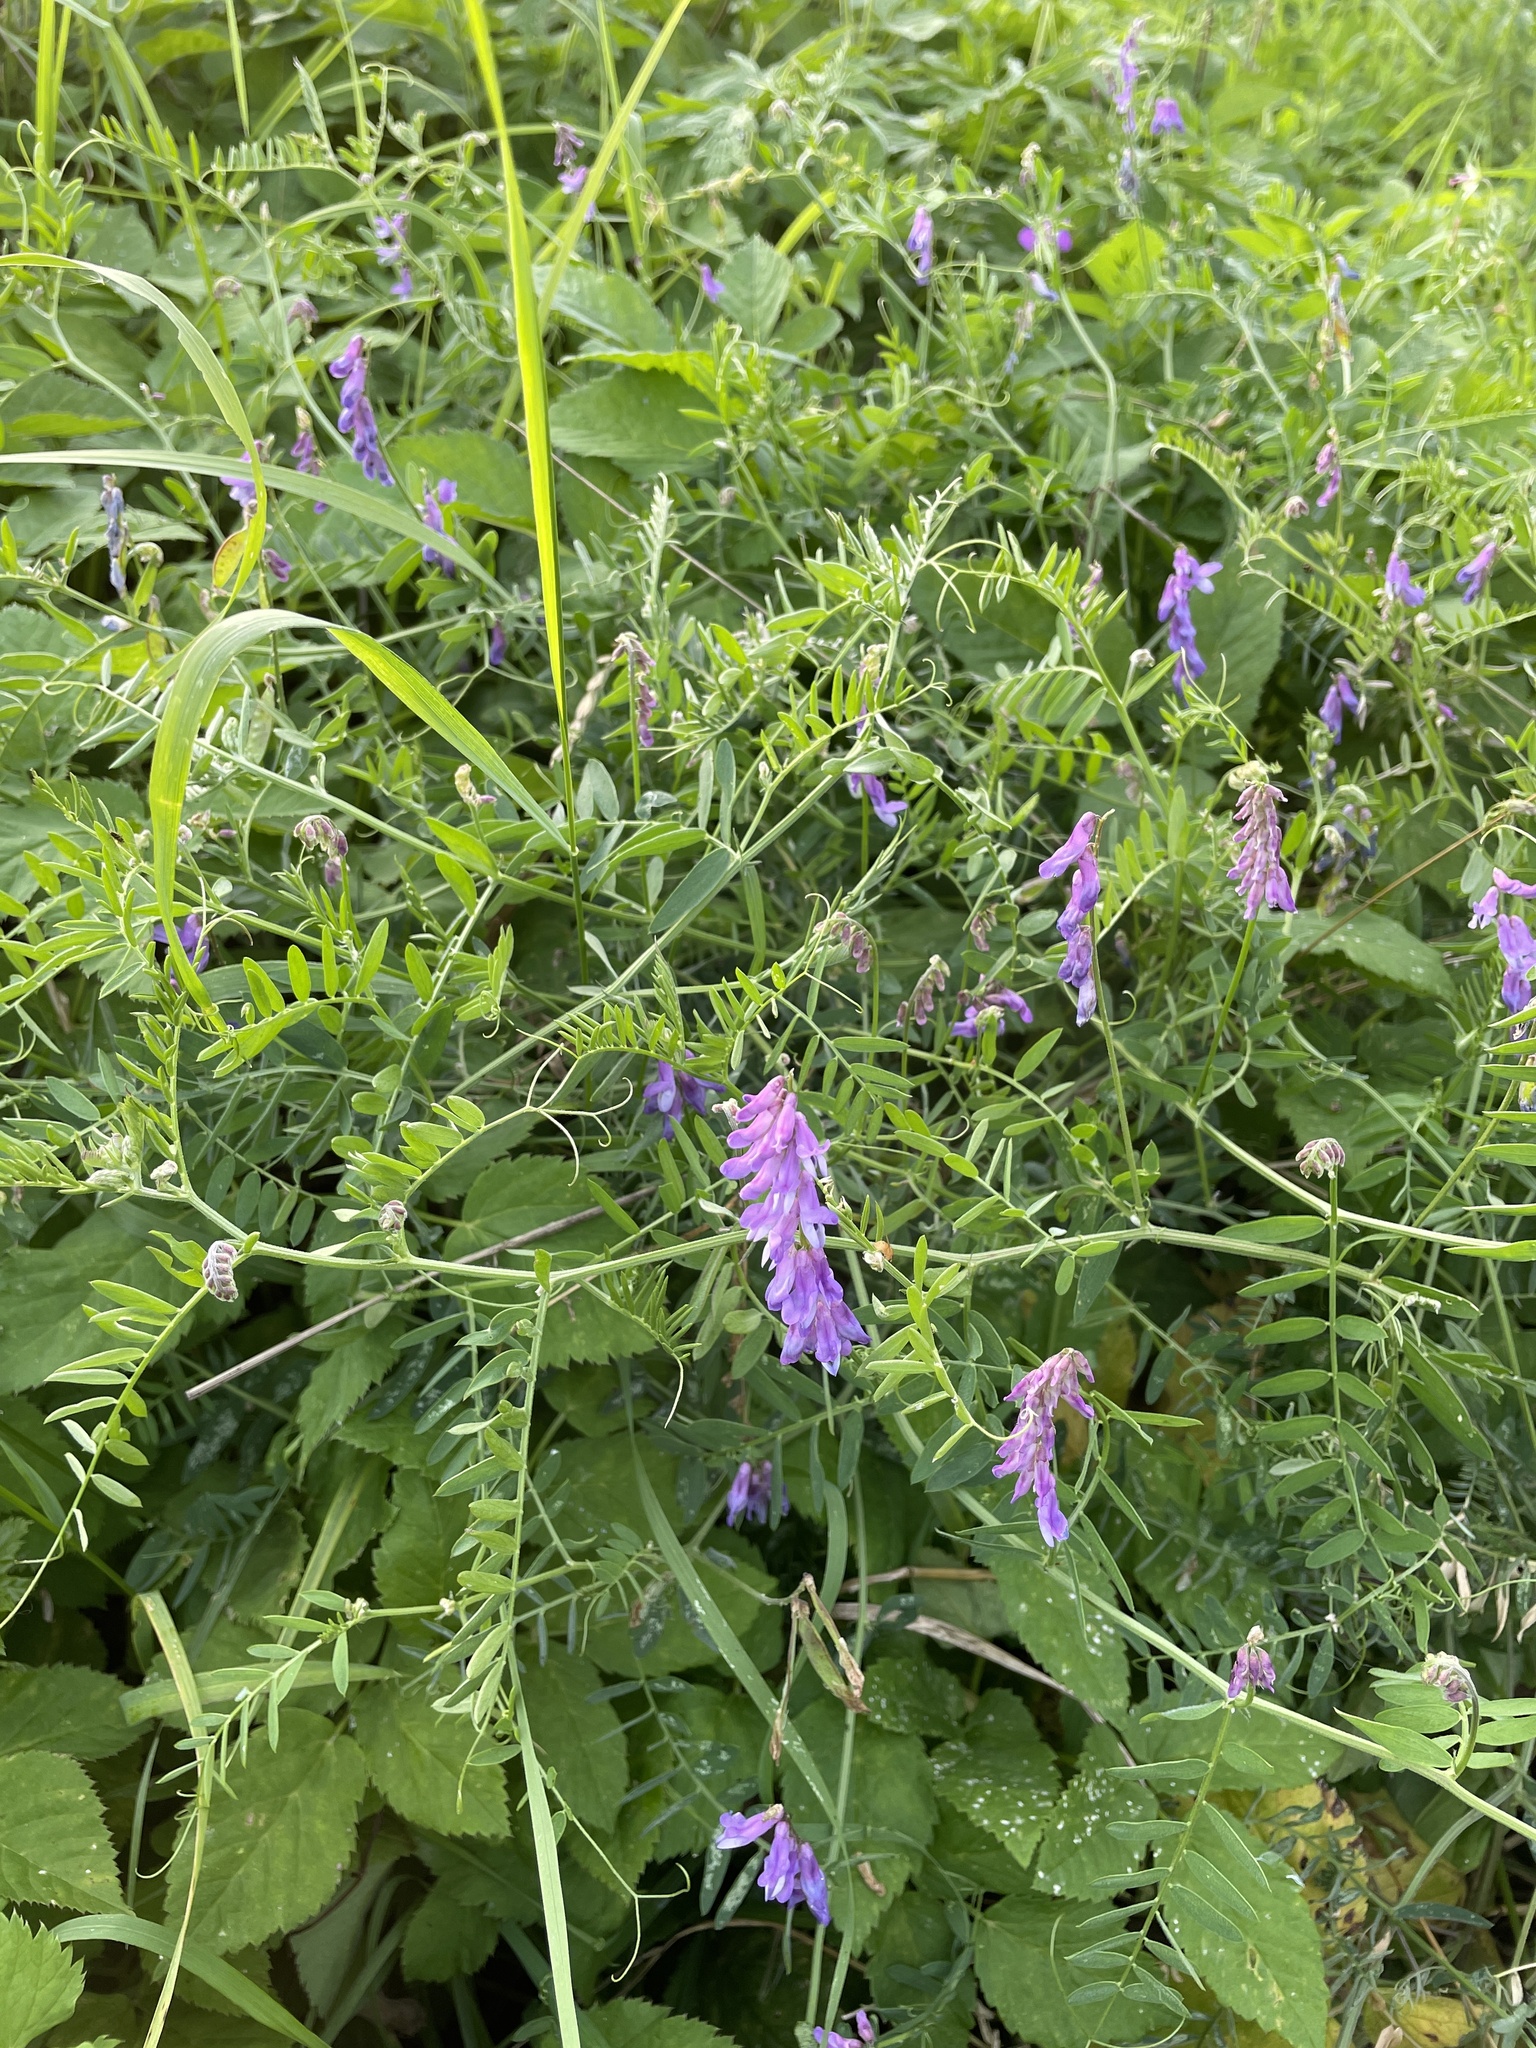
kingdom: Plantae
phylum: Tracheophyta
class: Magnoliopsida
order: Fabales
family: Fabaceae
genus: Vicia
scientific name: Vicia cracca
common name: Bird vetch
